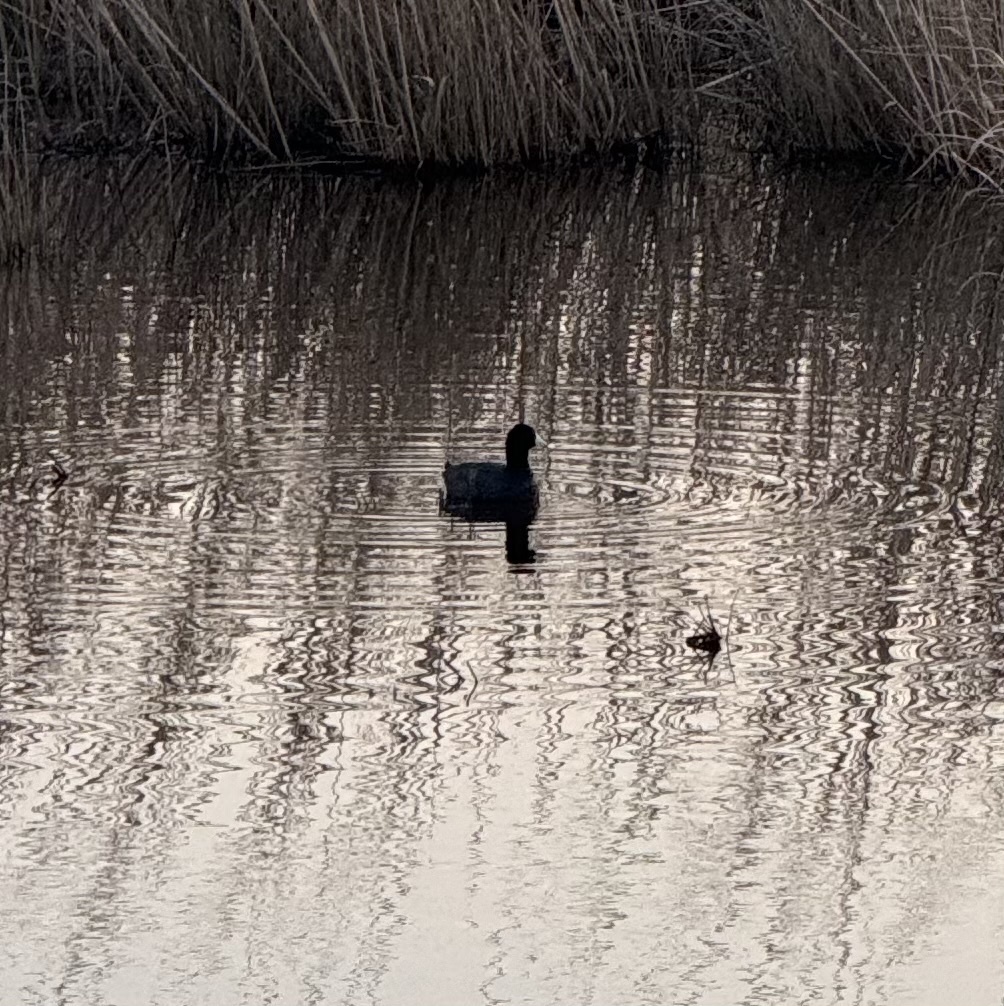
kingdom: Animalia
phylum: Chordata
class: Aves
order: Gruiformes
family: Rallidae
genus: Fulica
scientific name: Fulica americana
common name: American coot
